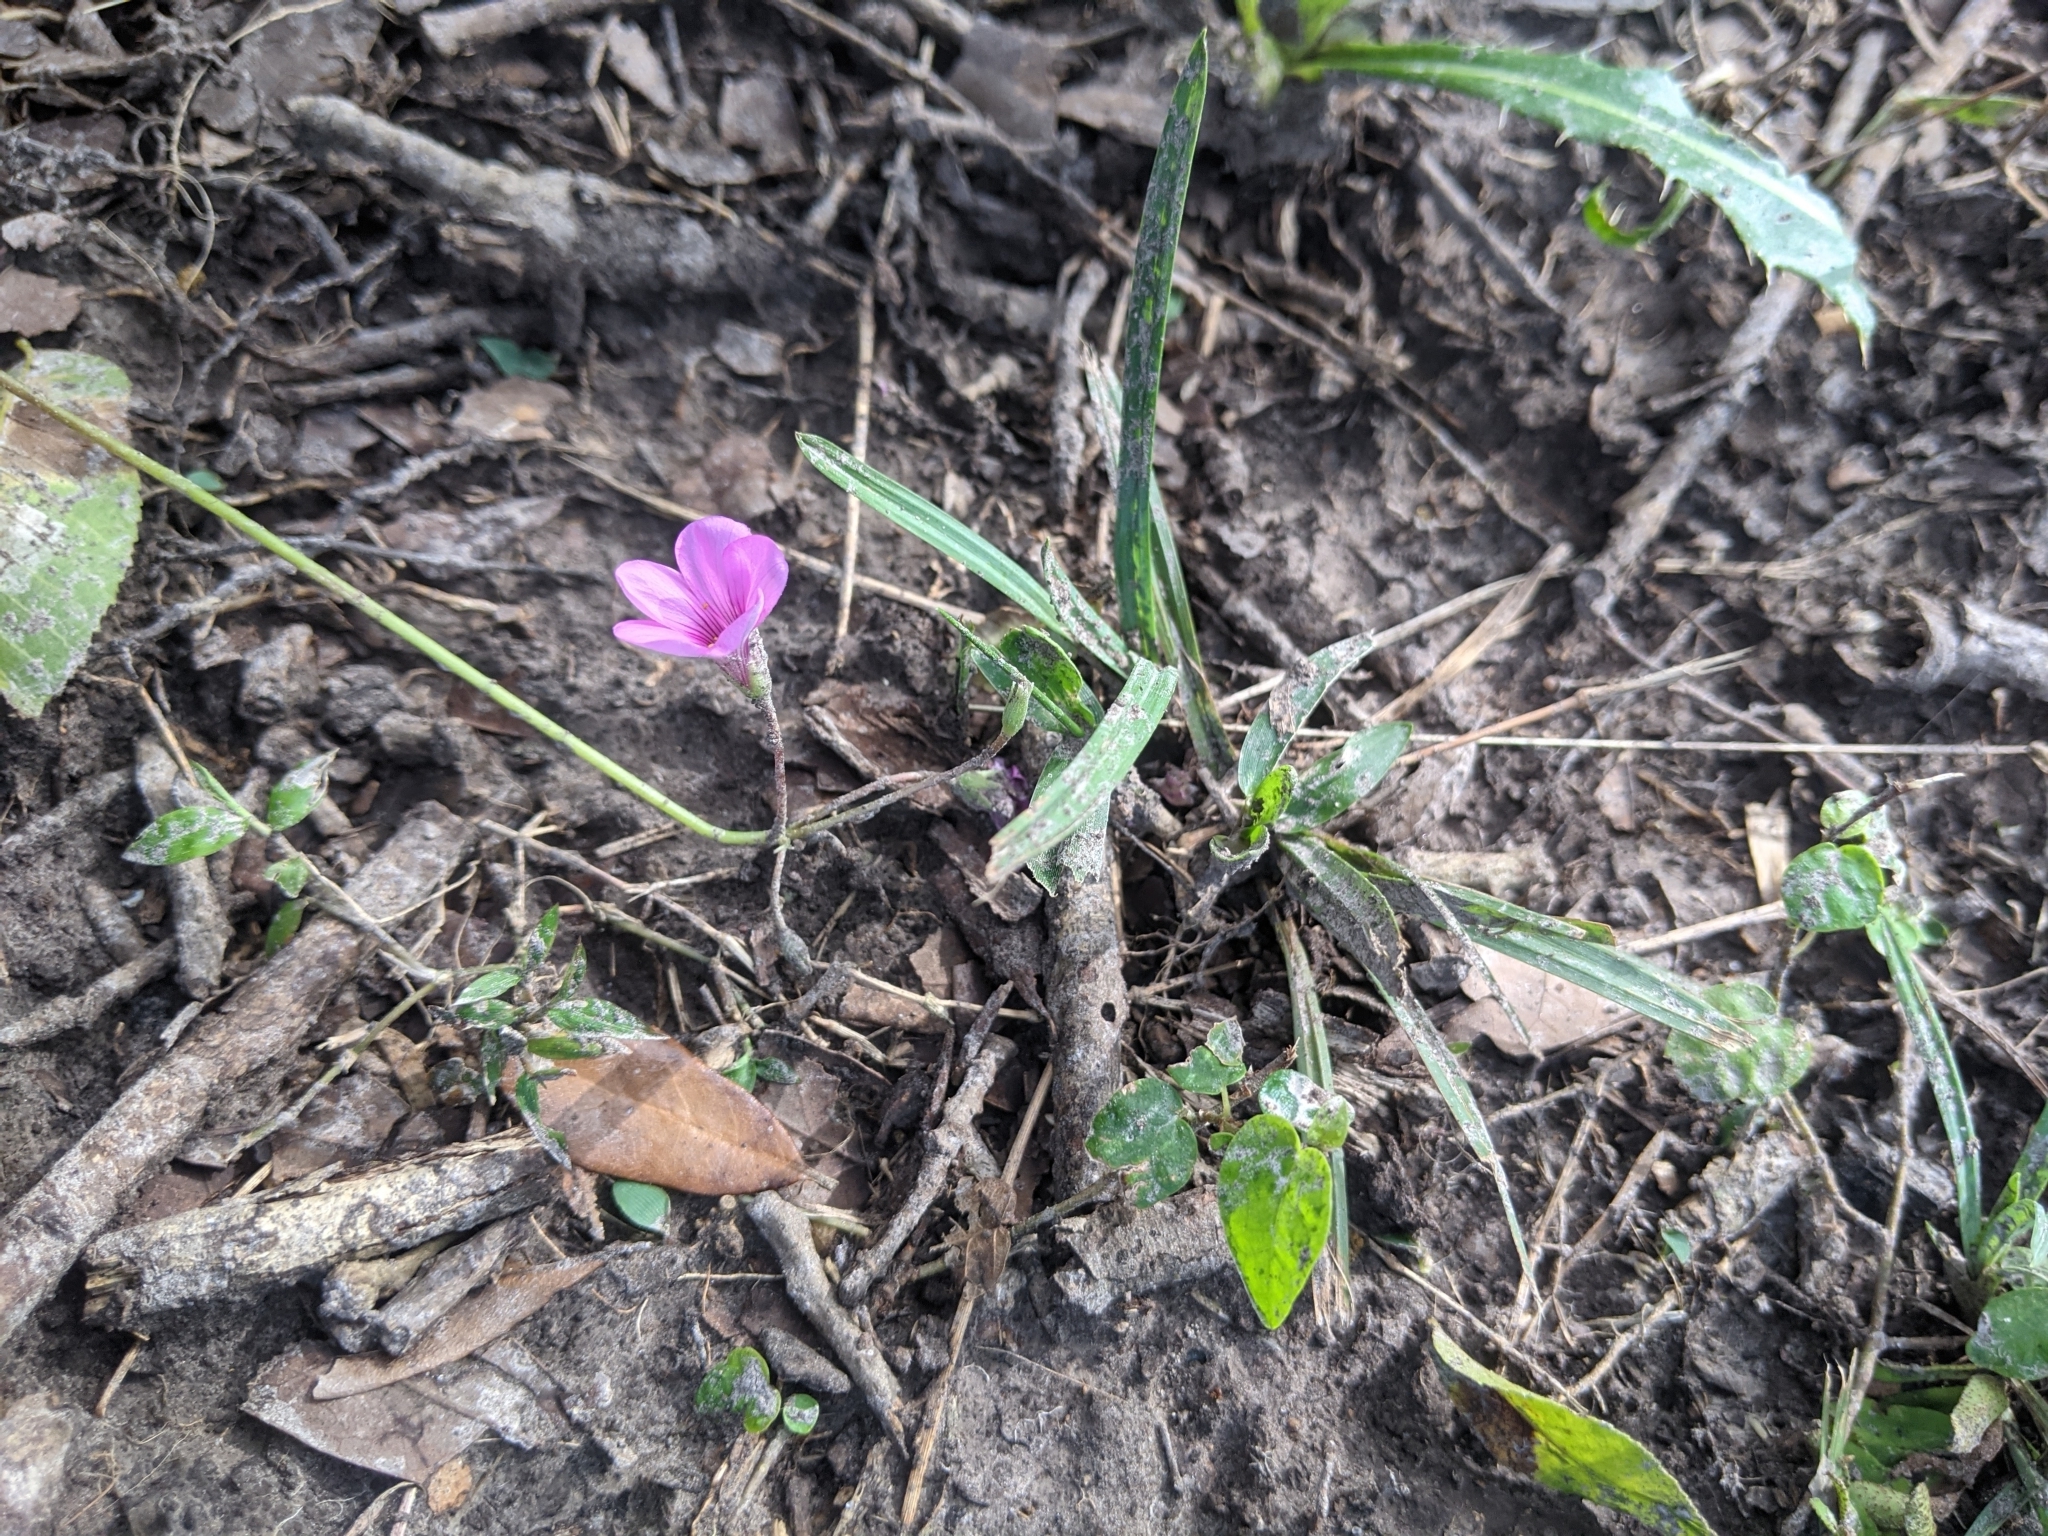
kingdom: Plantae
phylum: Tracheophyta
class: Magnoliopsida
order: Oxalidales
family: Oxalidaceae
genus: Oxalis
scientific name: Oxalis articulata
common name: Pink-sorrel
